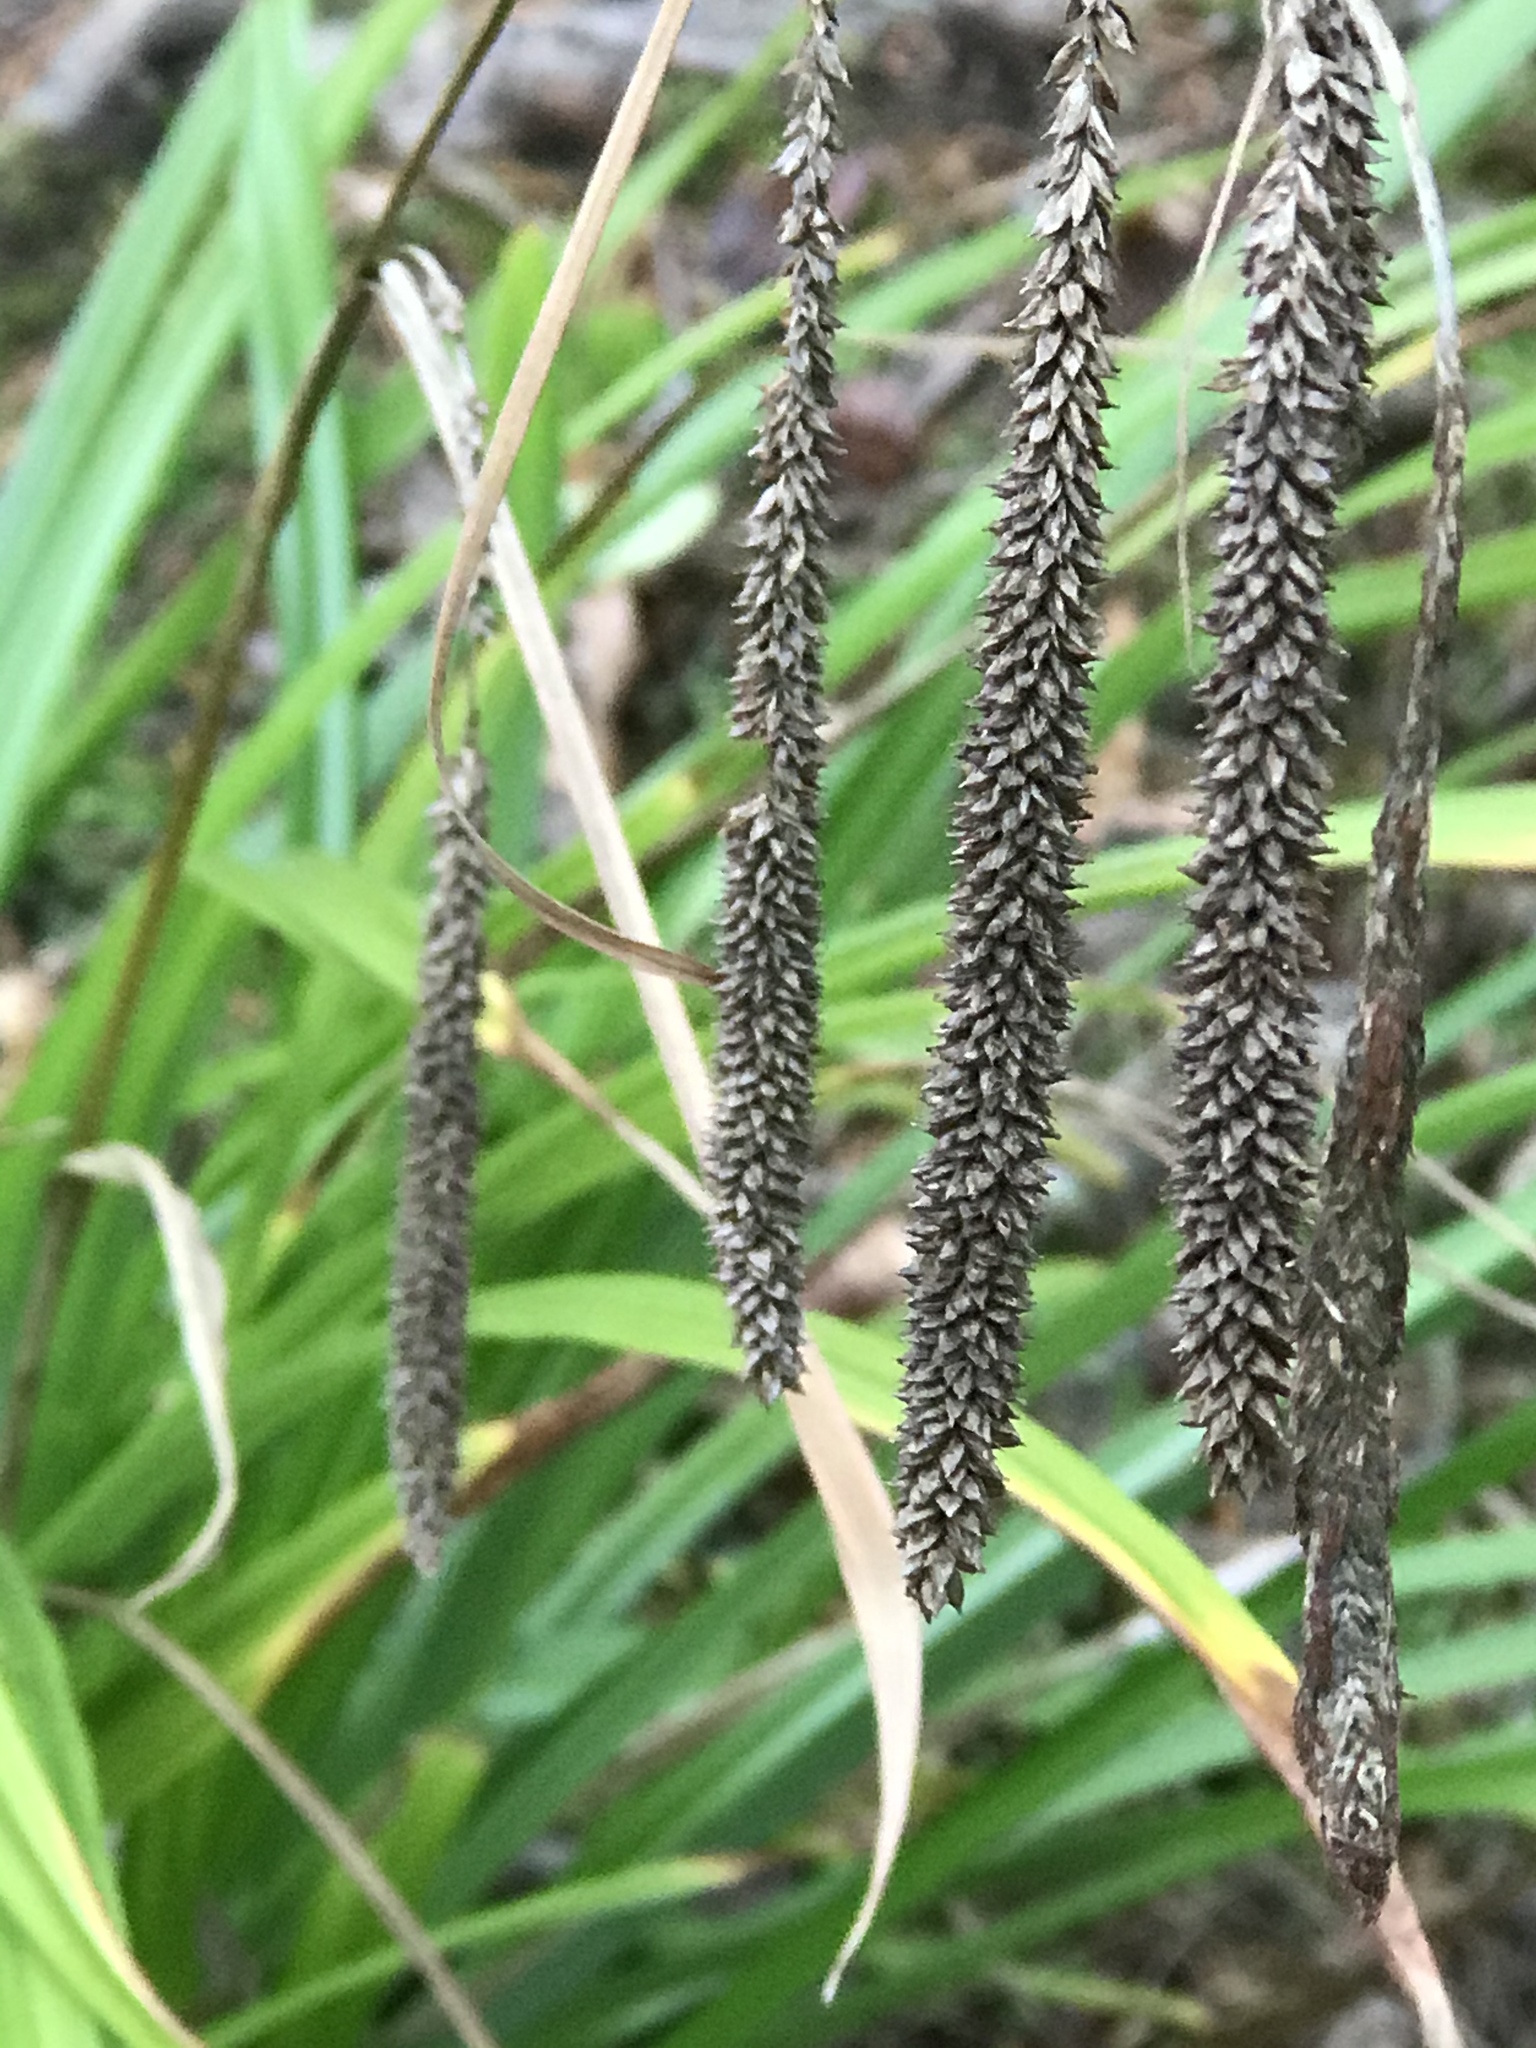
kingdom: Plantae
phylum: Tracheophyta
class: Liliopsida
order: Poales
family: Cyperaceae
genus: Carex
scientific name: Carex pendula
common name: Pendulous sedge
